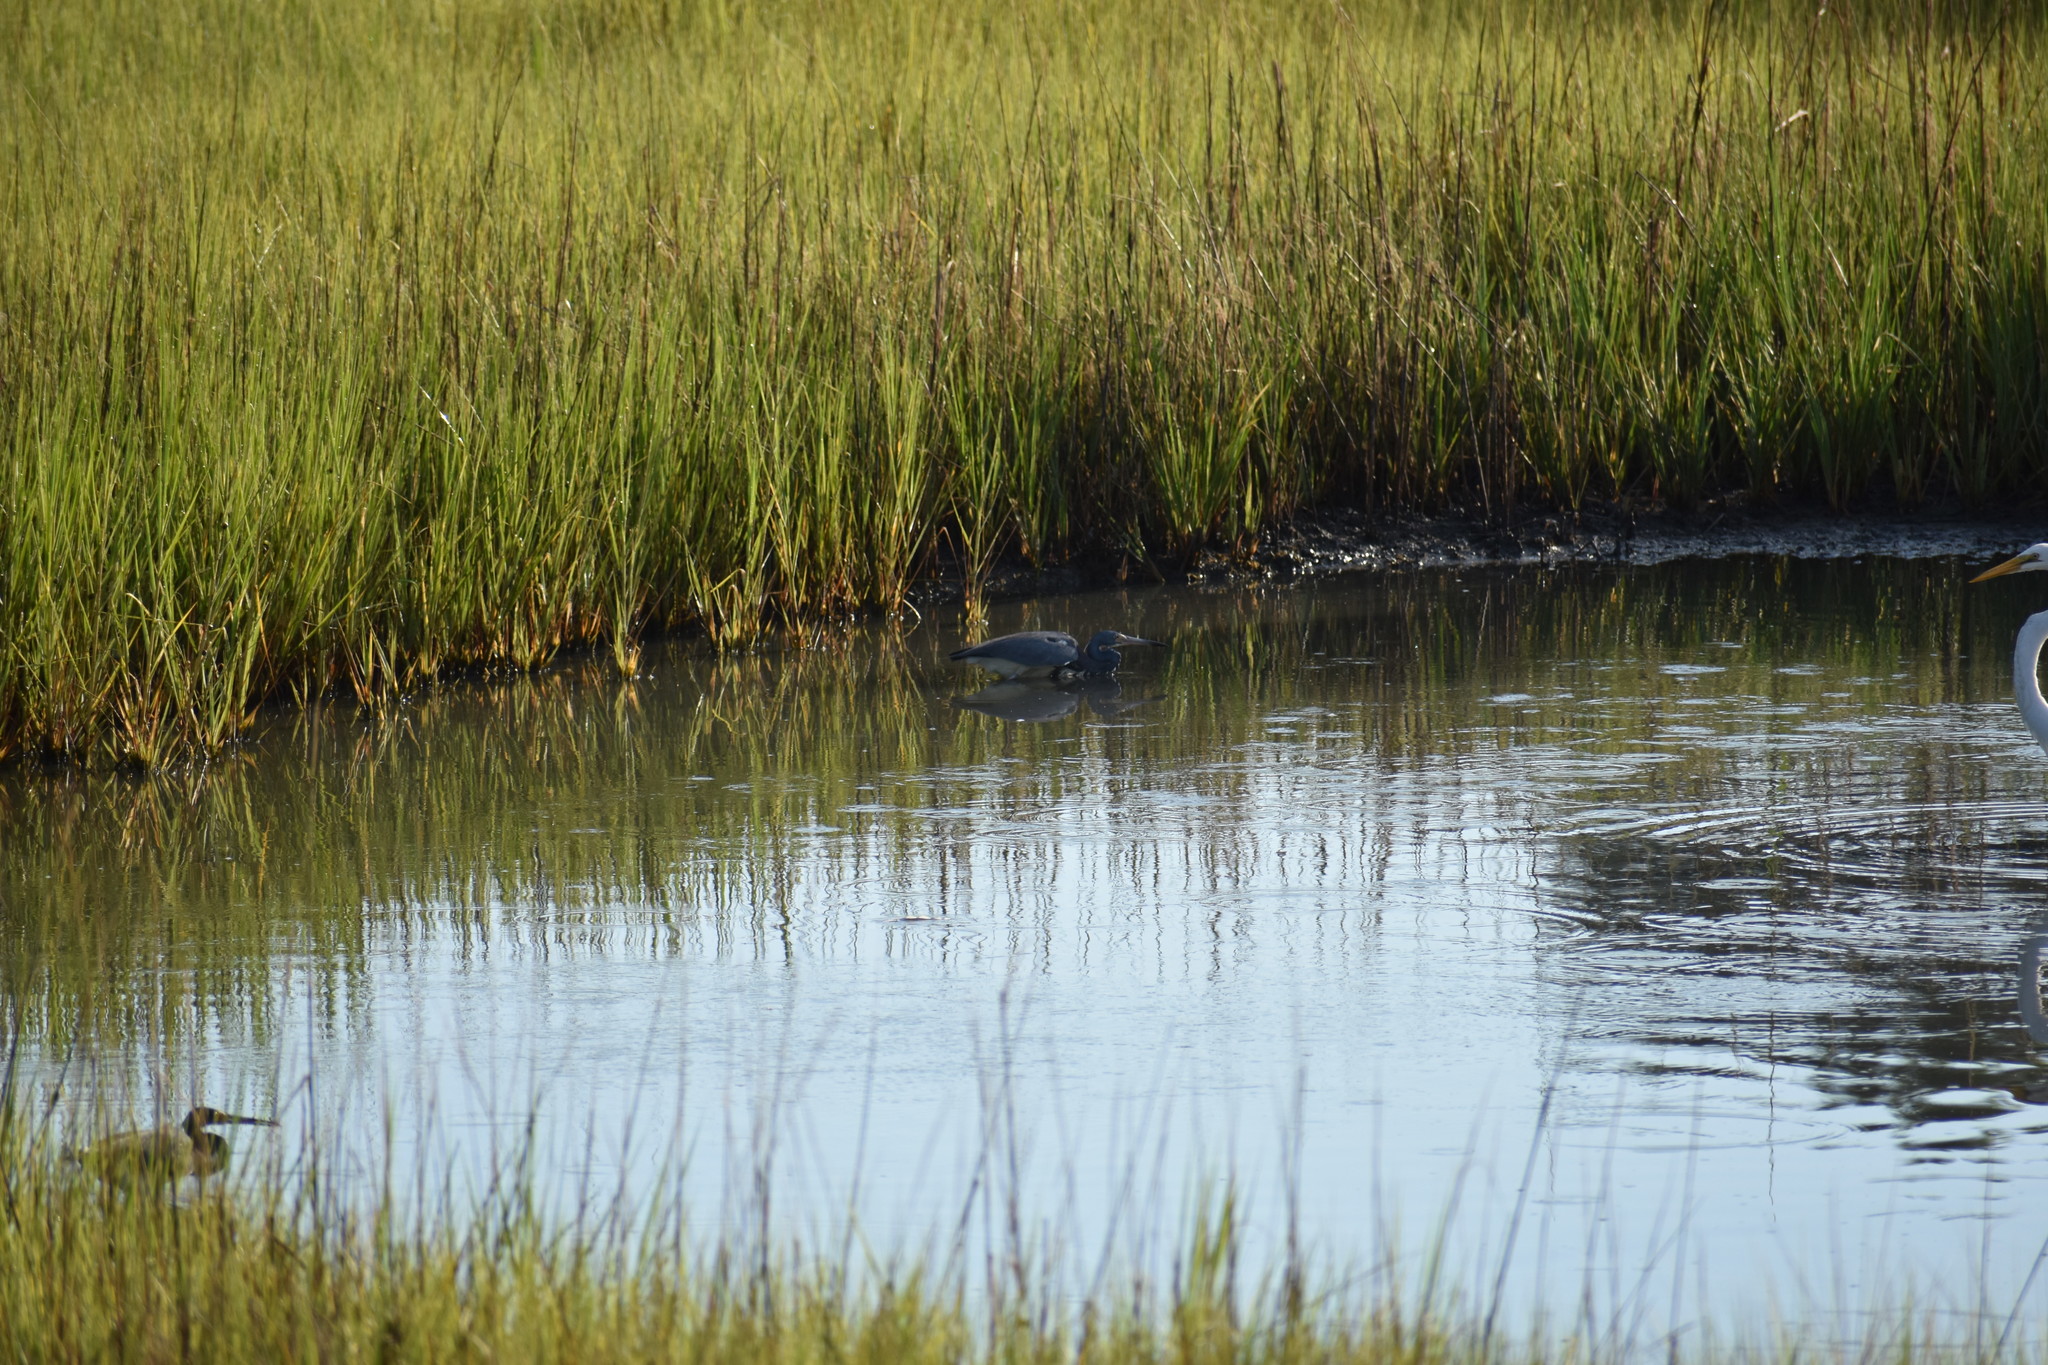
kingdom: Animalia
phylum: Chordata
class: Aves
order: Pelecaniformes
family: Ardeidae
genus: Egretta
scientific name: Egretta tricolor
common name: Tricolored heron
